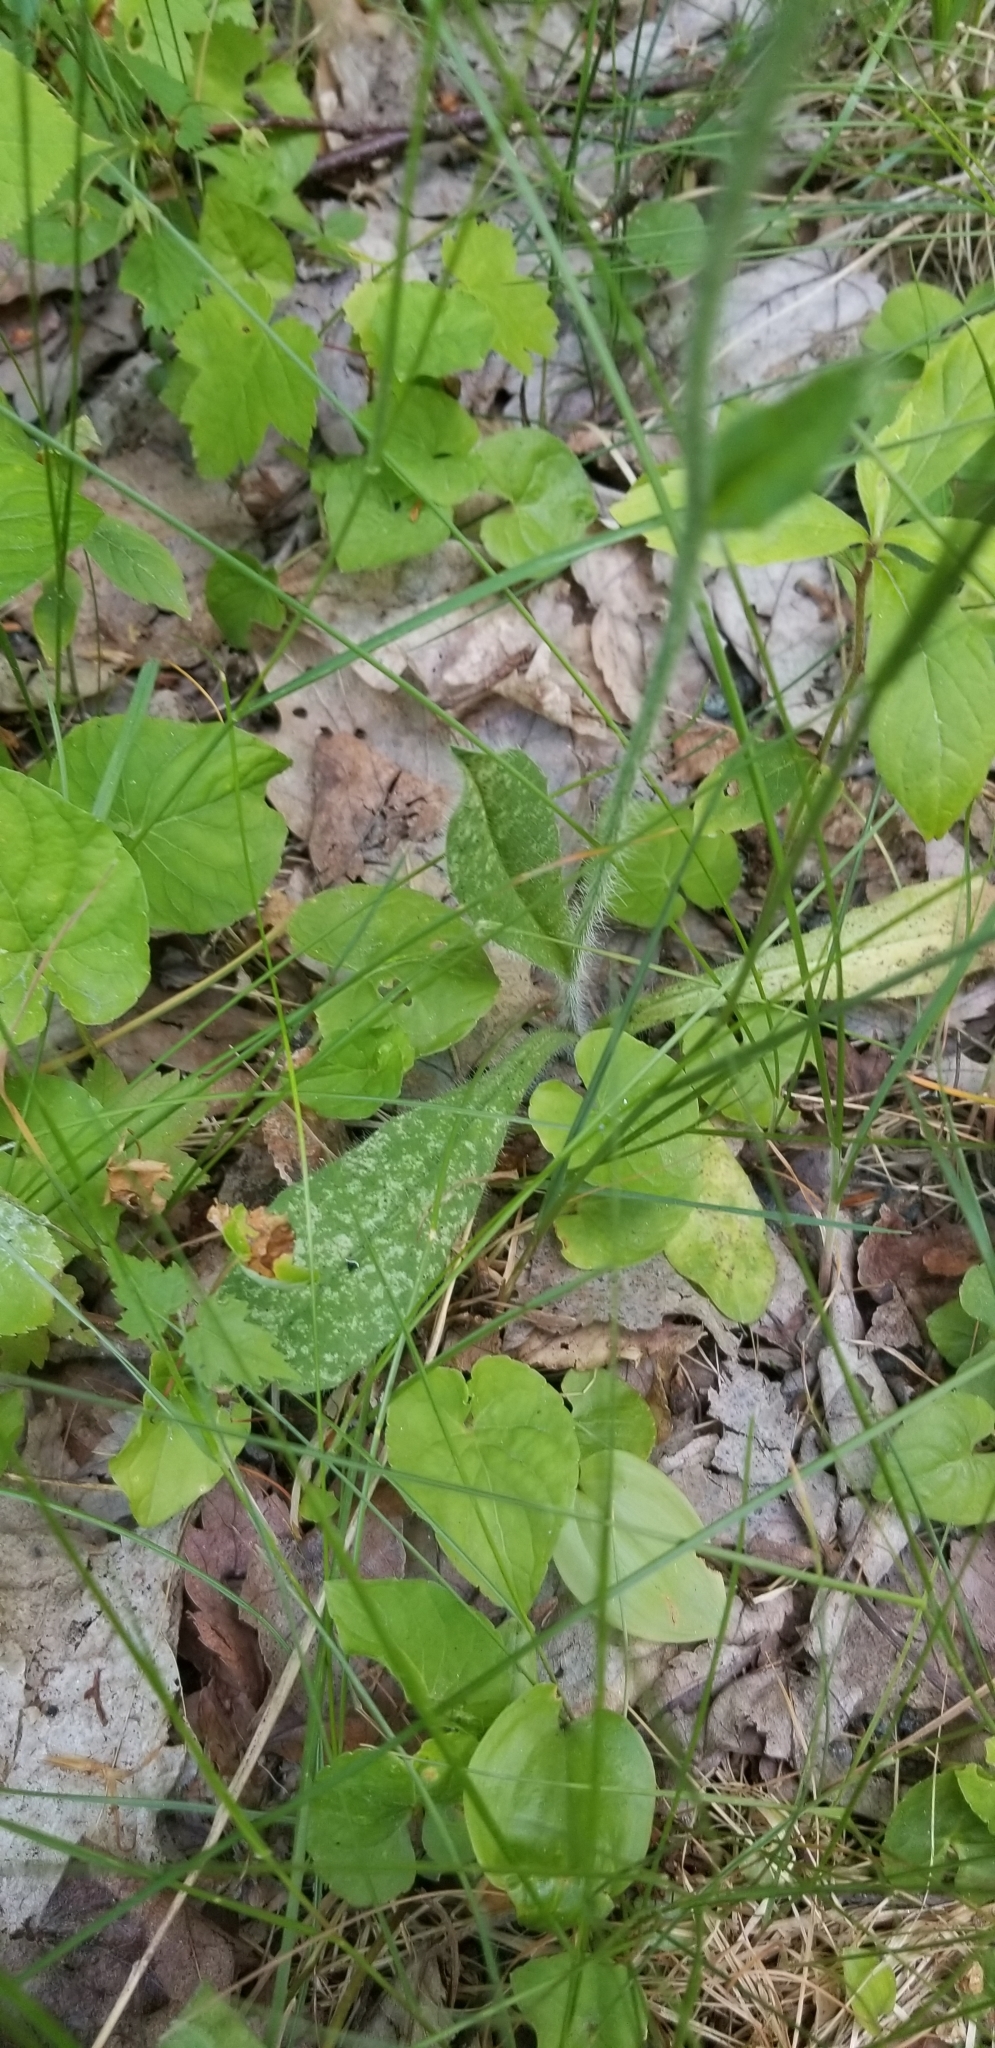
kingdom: Plantae
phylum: Tracheophyta
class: Magnoliopsida
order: Asterales
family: Asteraceae
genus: Pilosella
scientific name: Pilosella aurantiaca
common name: Fox-and-cubs
